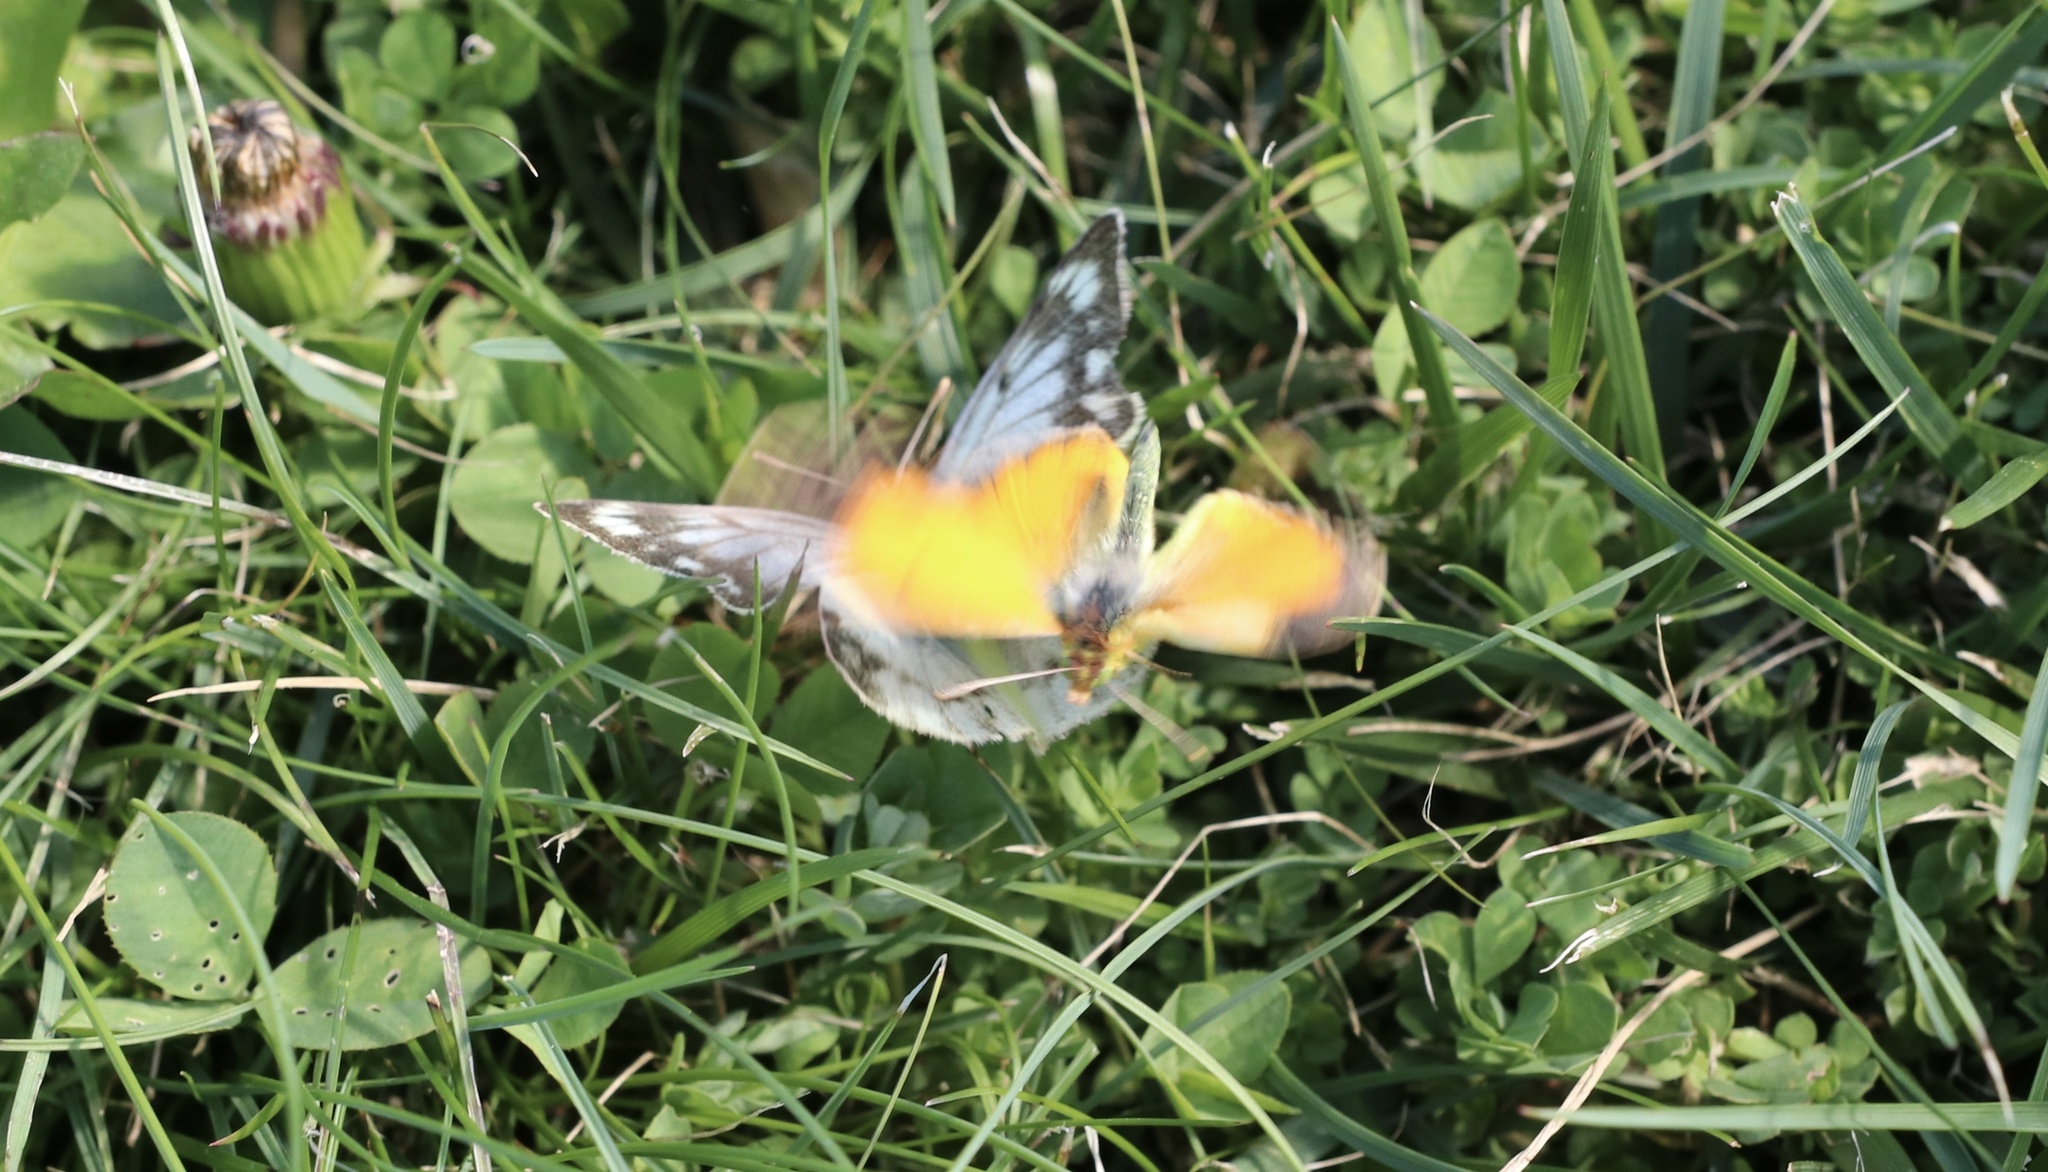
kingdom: Animalia
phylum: Arthropoda
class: Insecta
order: Lepidoptera
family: Pieridae
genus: Colias
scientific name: Colias vauthierii
